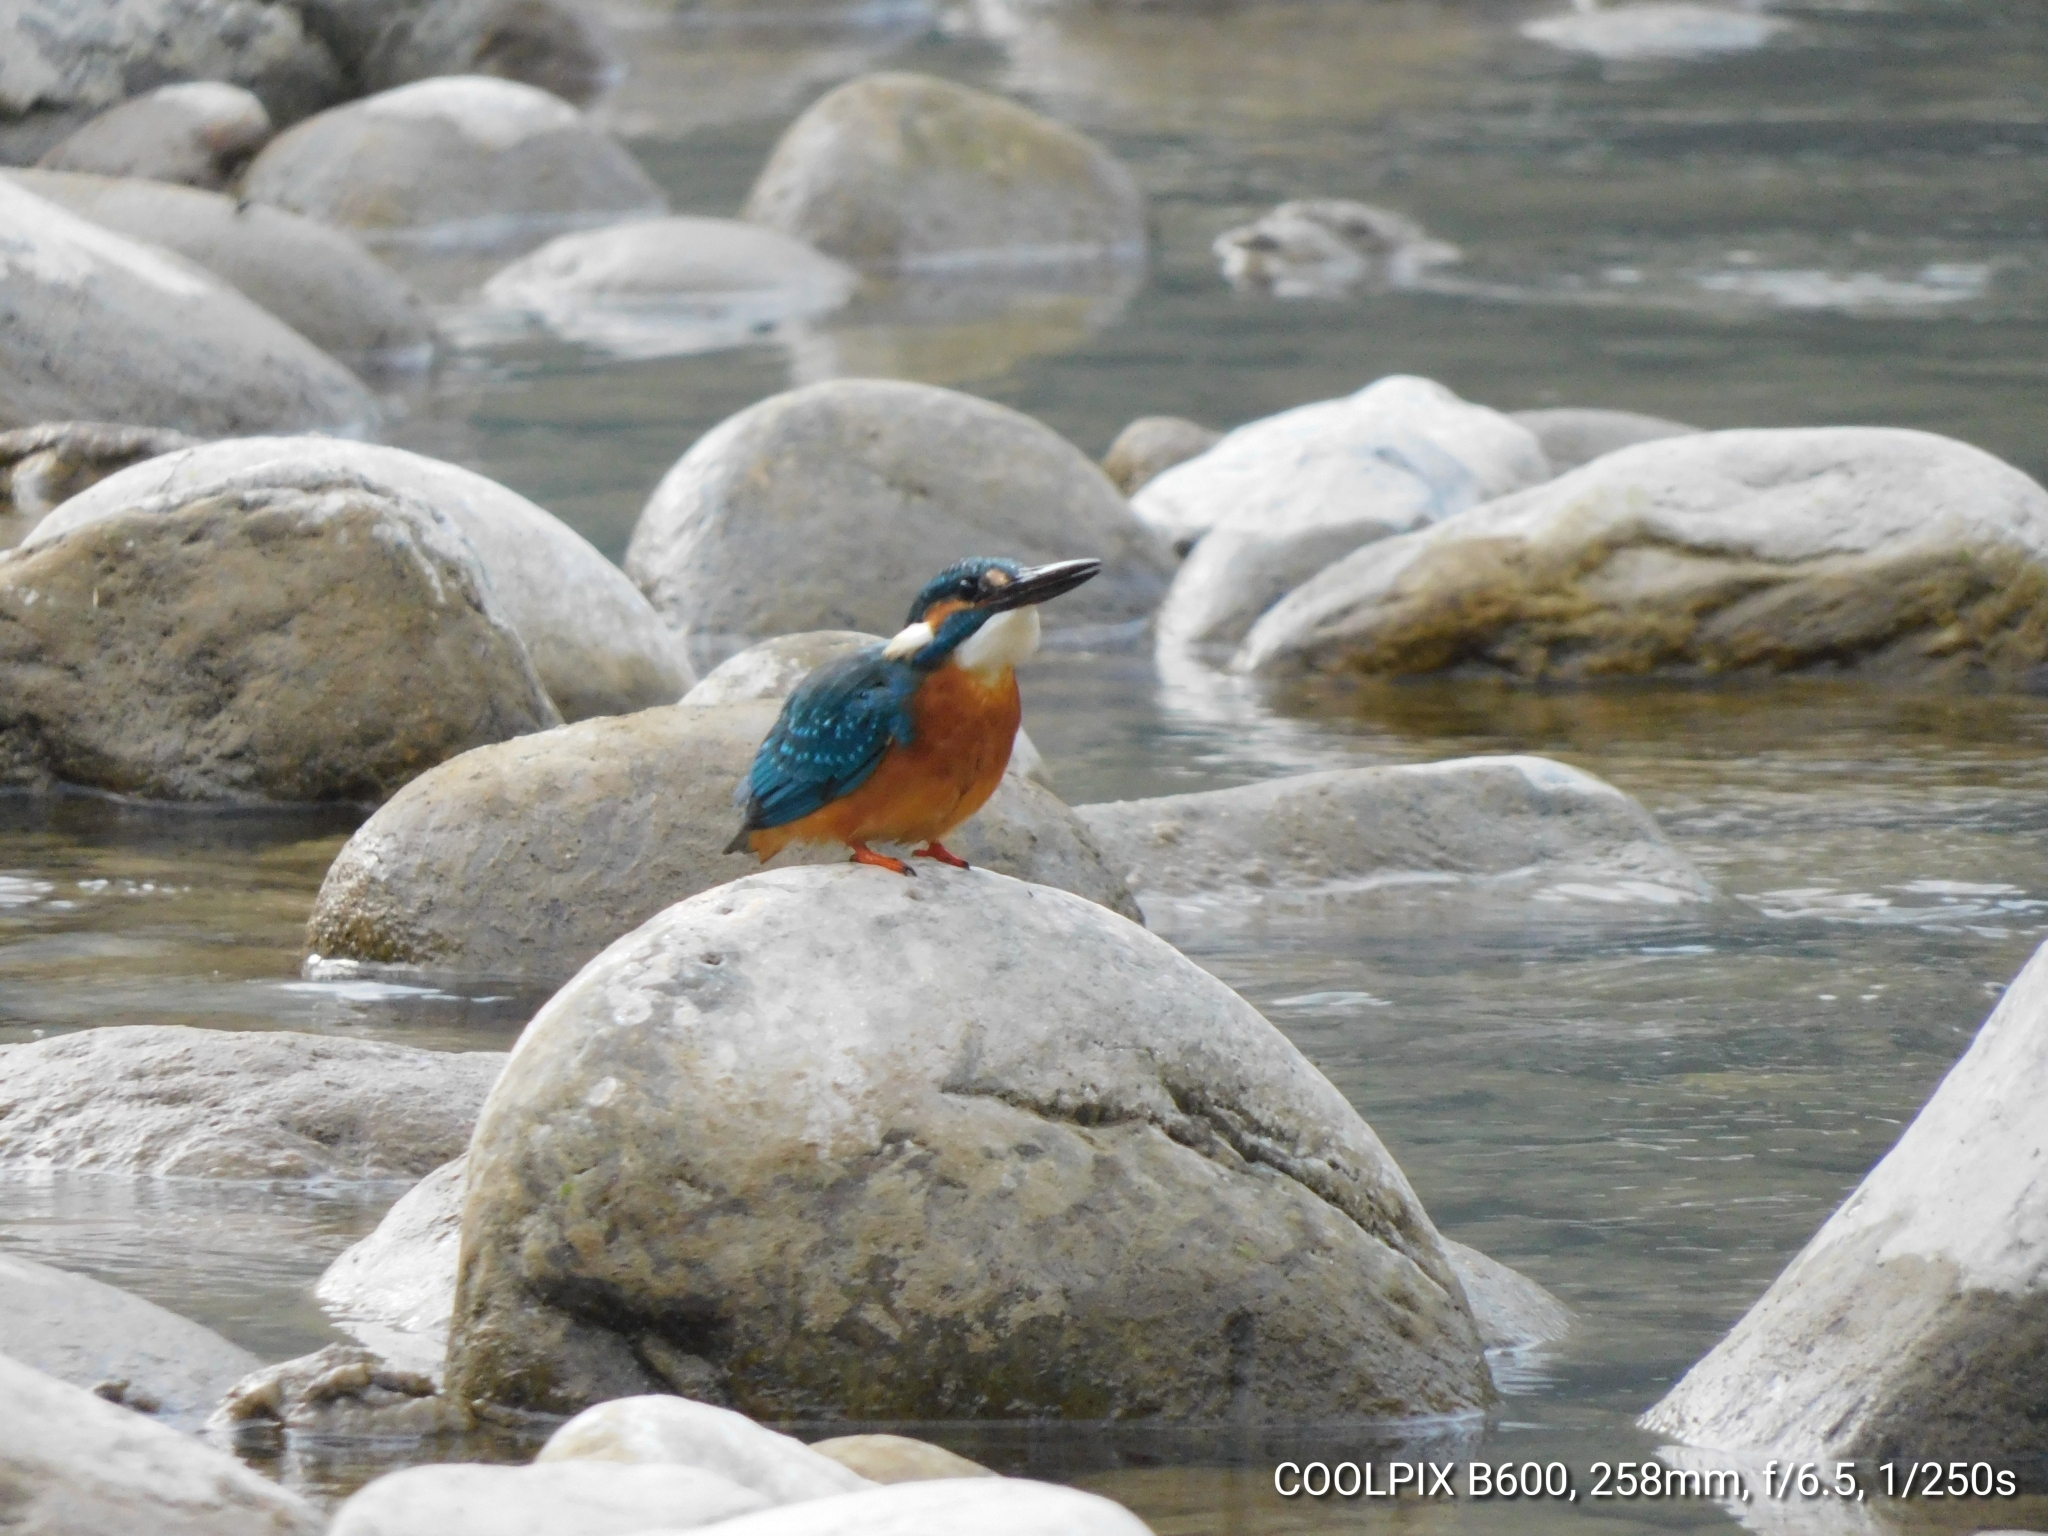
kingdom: Animalia
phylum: Chordata
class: Aves
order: Coraciiformes
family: Alcedinidae
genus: Alcedo
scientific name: Alcedo atthis
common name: Common kingfisher
